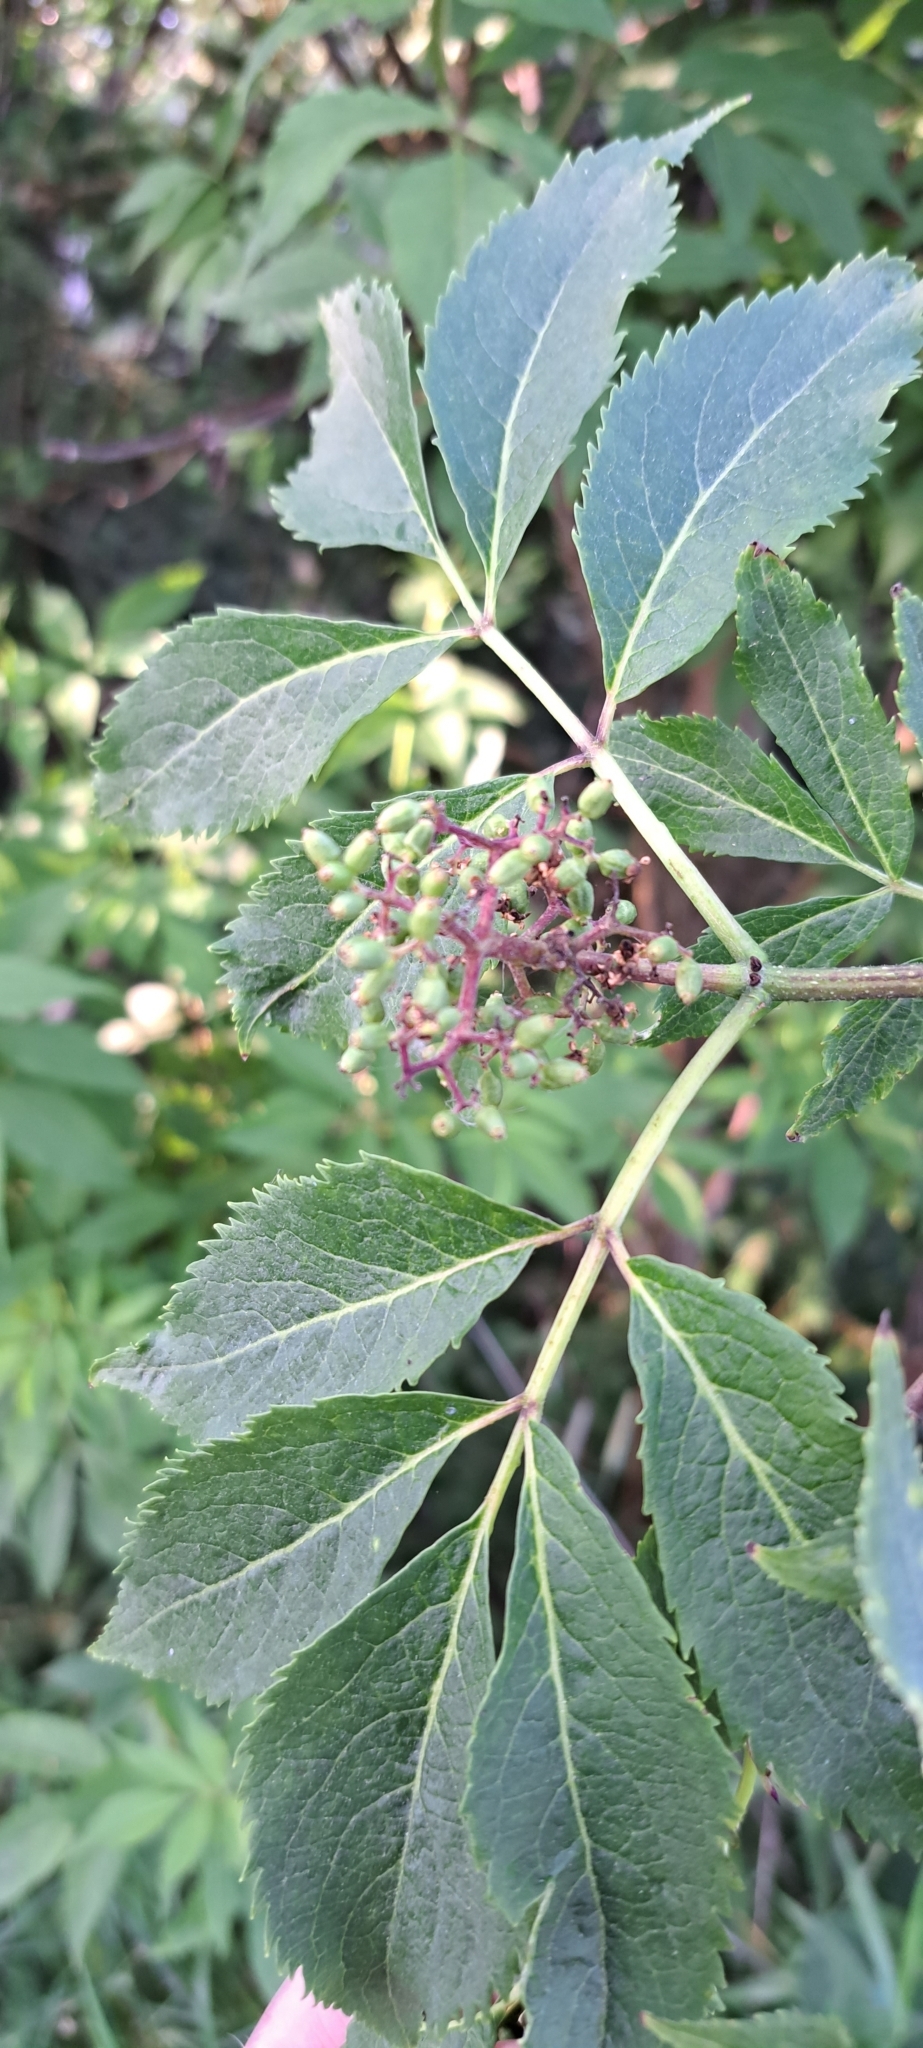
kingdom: Plantae
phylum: Tracheophyta
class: Magnoliopsida
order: Dipsacales
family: Viburnaceae
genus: Sambucus
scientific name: Sambucus racemosa
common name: Red-berried elder
